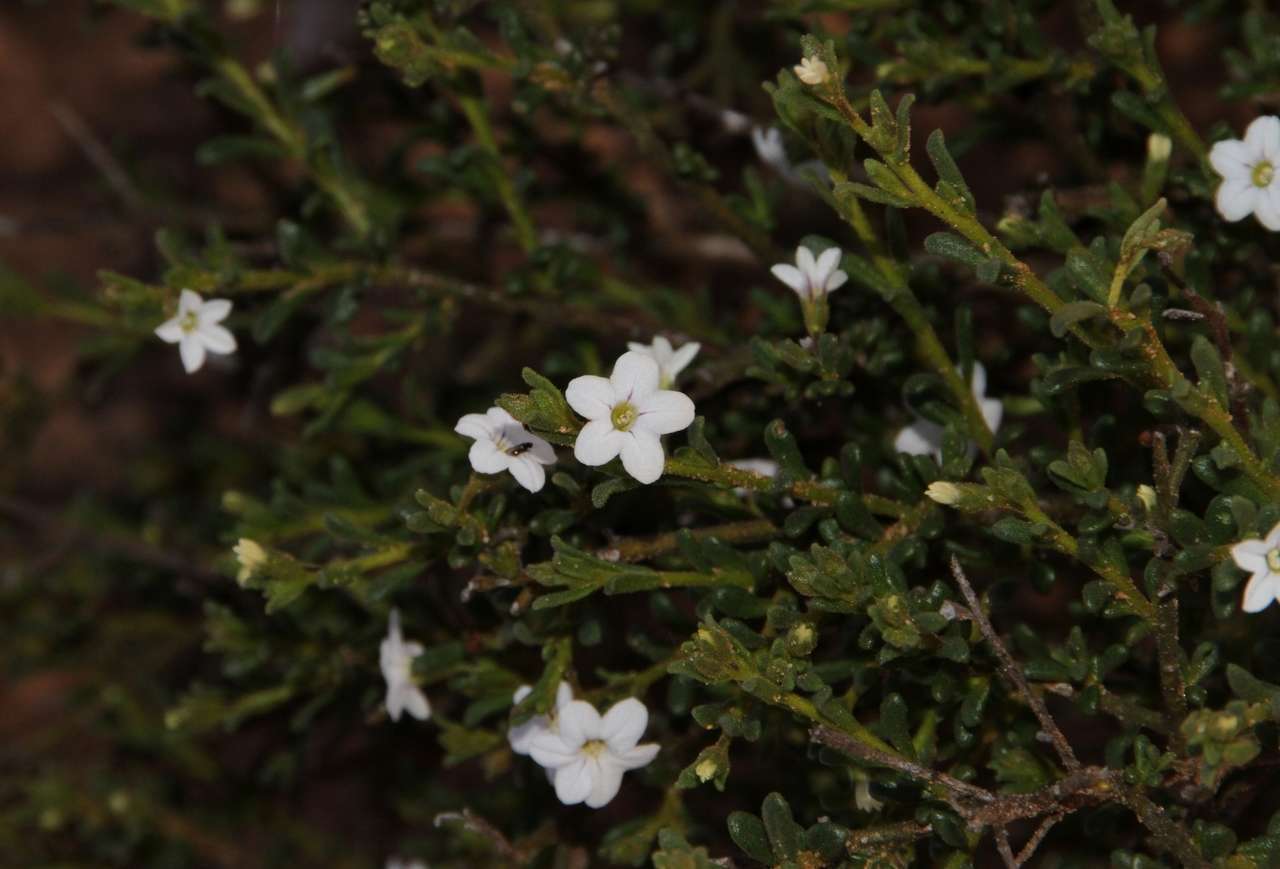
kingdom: Plantae
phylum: Tracheophyta
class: Magnoliopsida
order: Solanales
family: Solanaceae
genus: Cyphanthera
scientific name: Cyphanthera myosotidea
